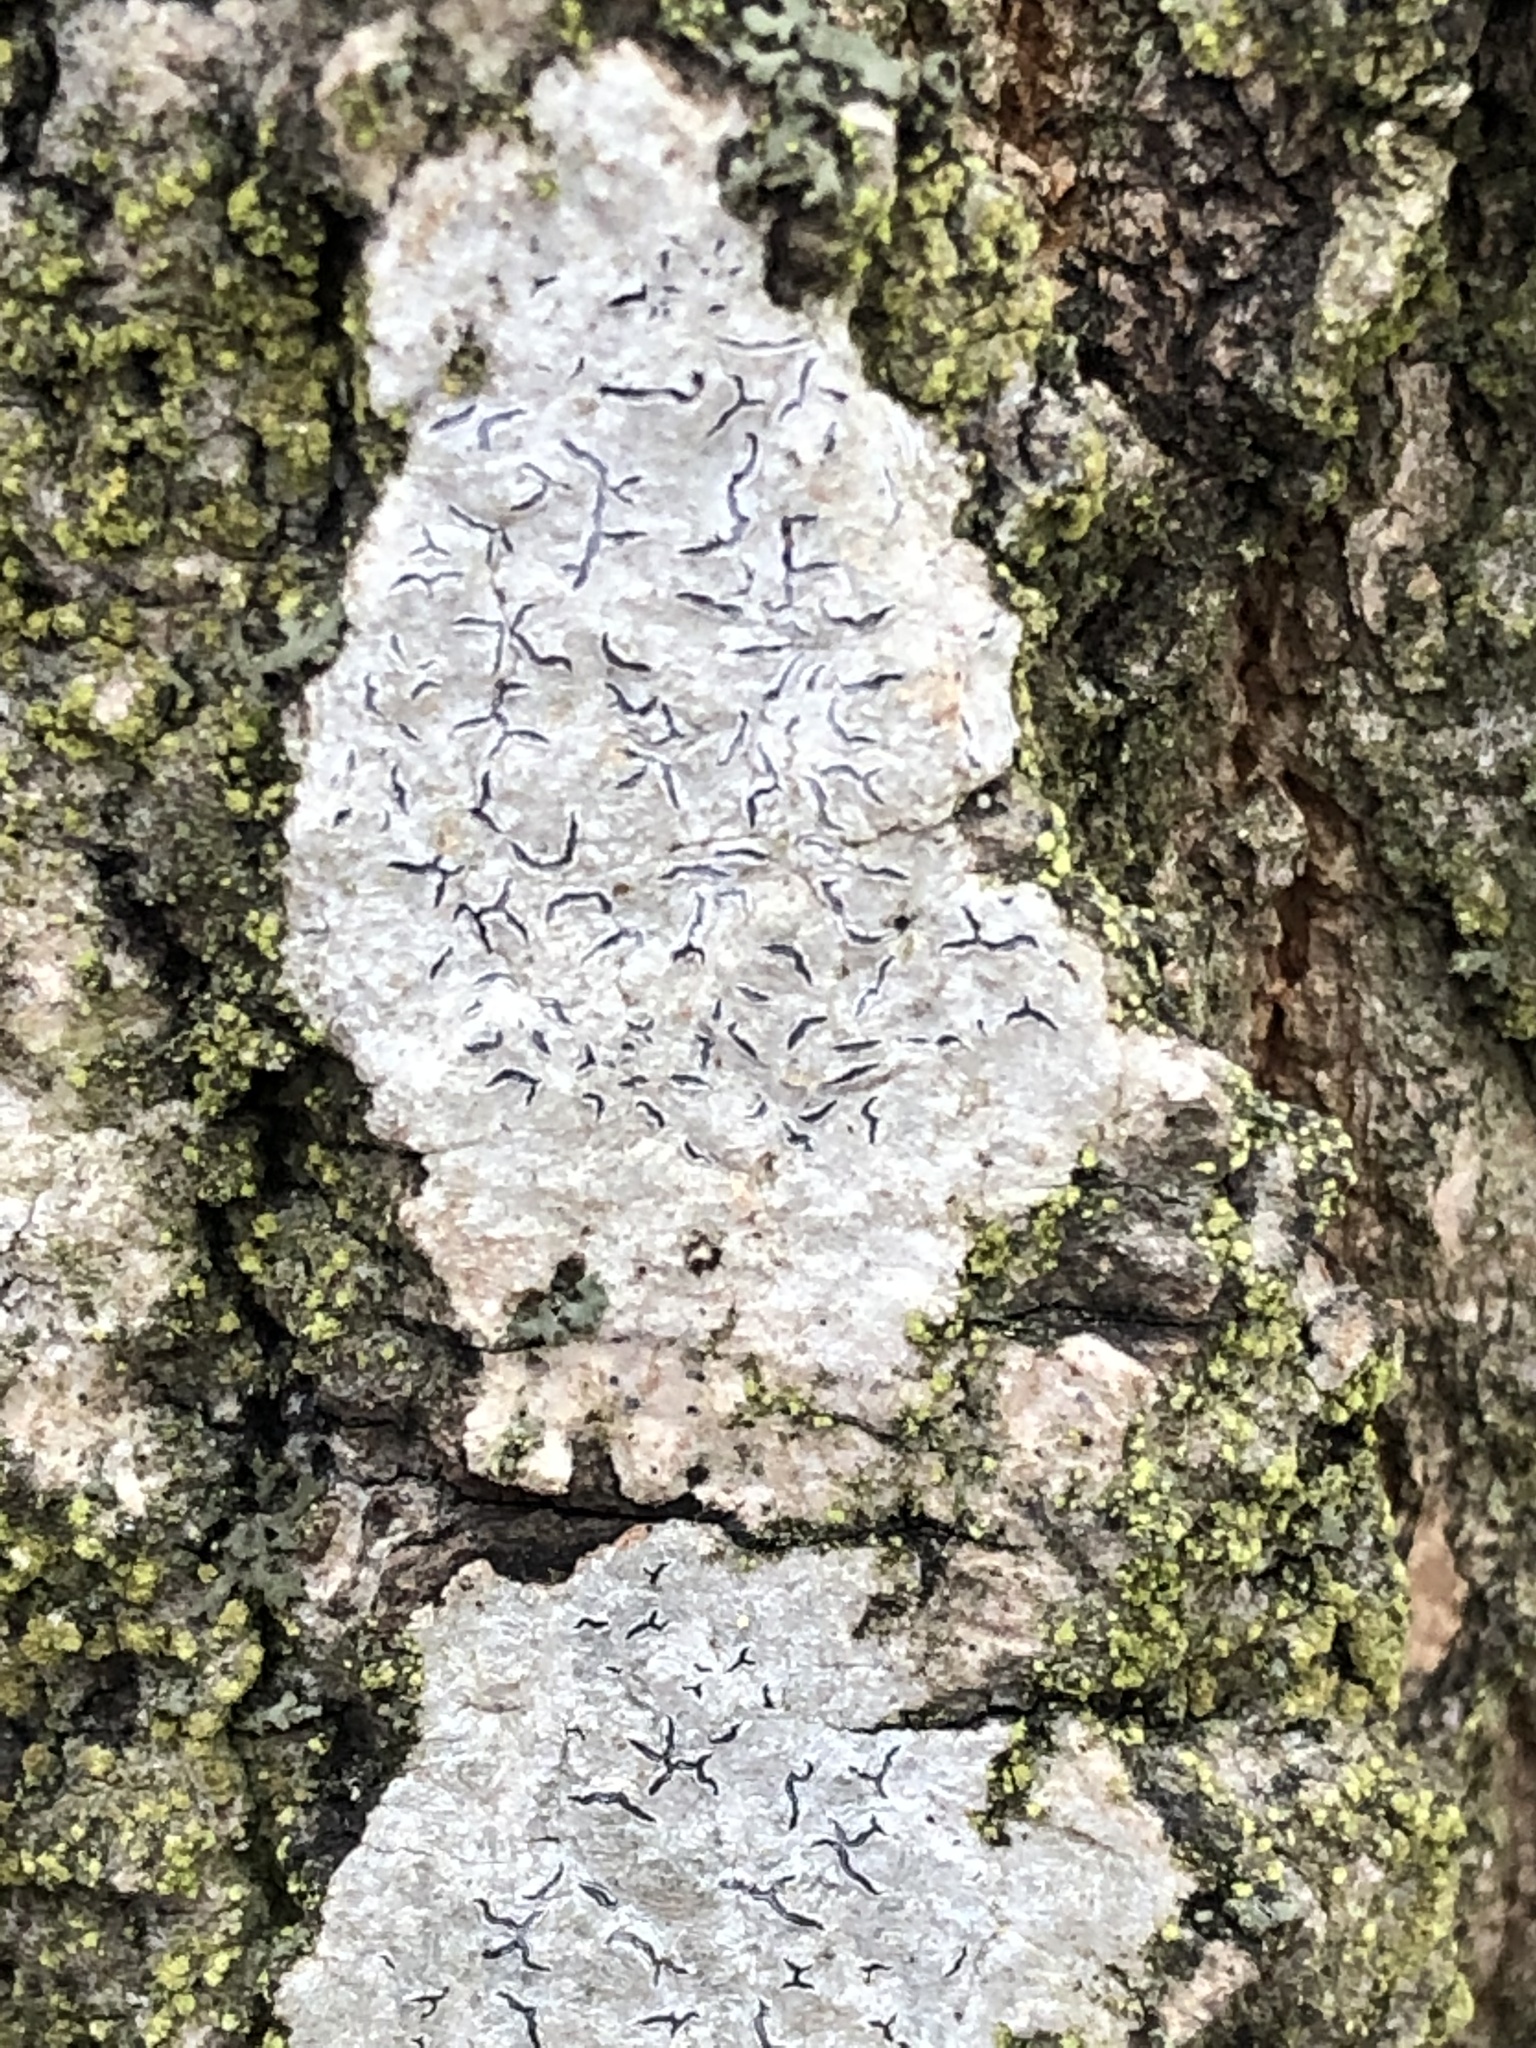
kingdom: Fungi
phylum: Ascomycota
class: Lecanoromycetes
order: Ostropales
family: Graphidaceae
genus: Graphis
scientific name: Graphis scripta
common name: Script lichen
